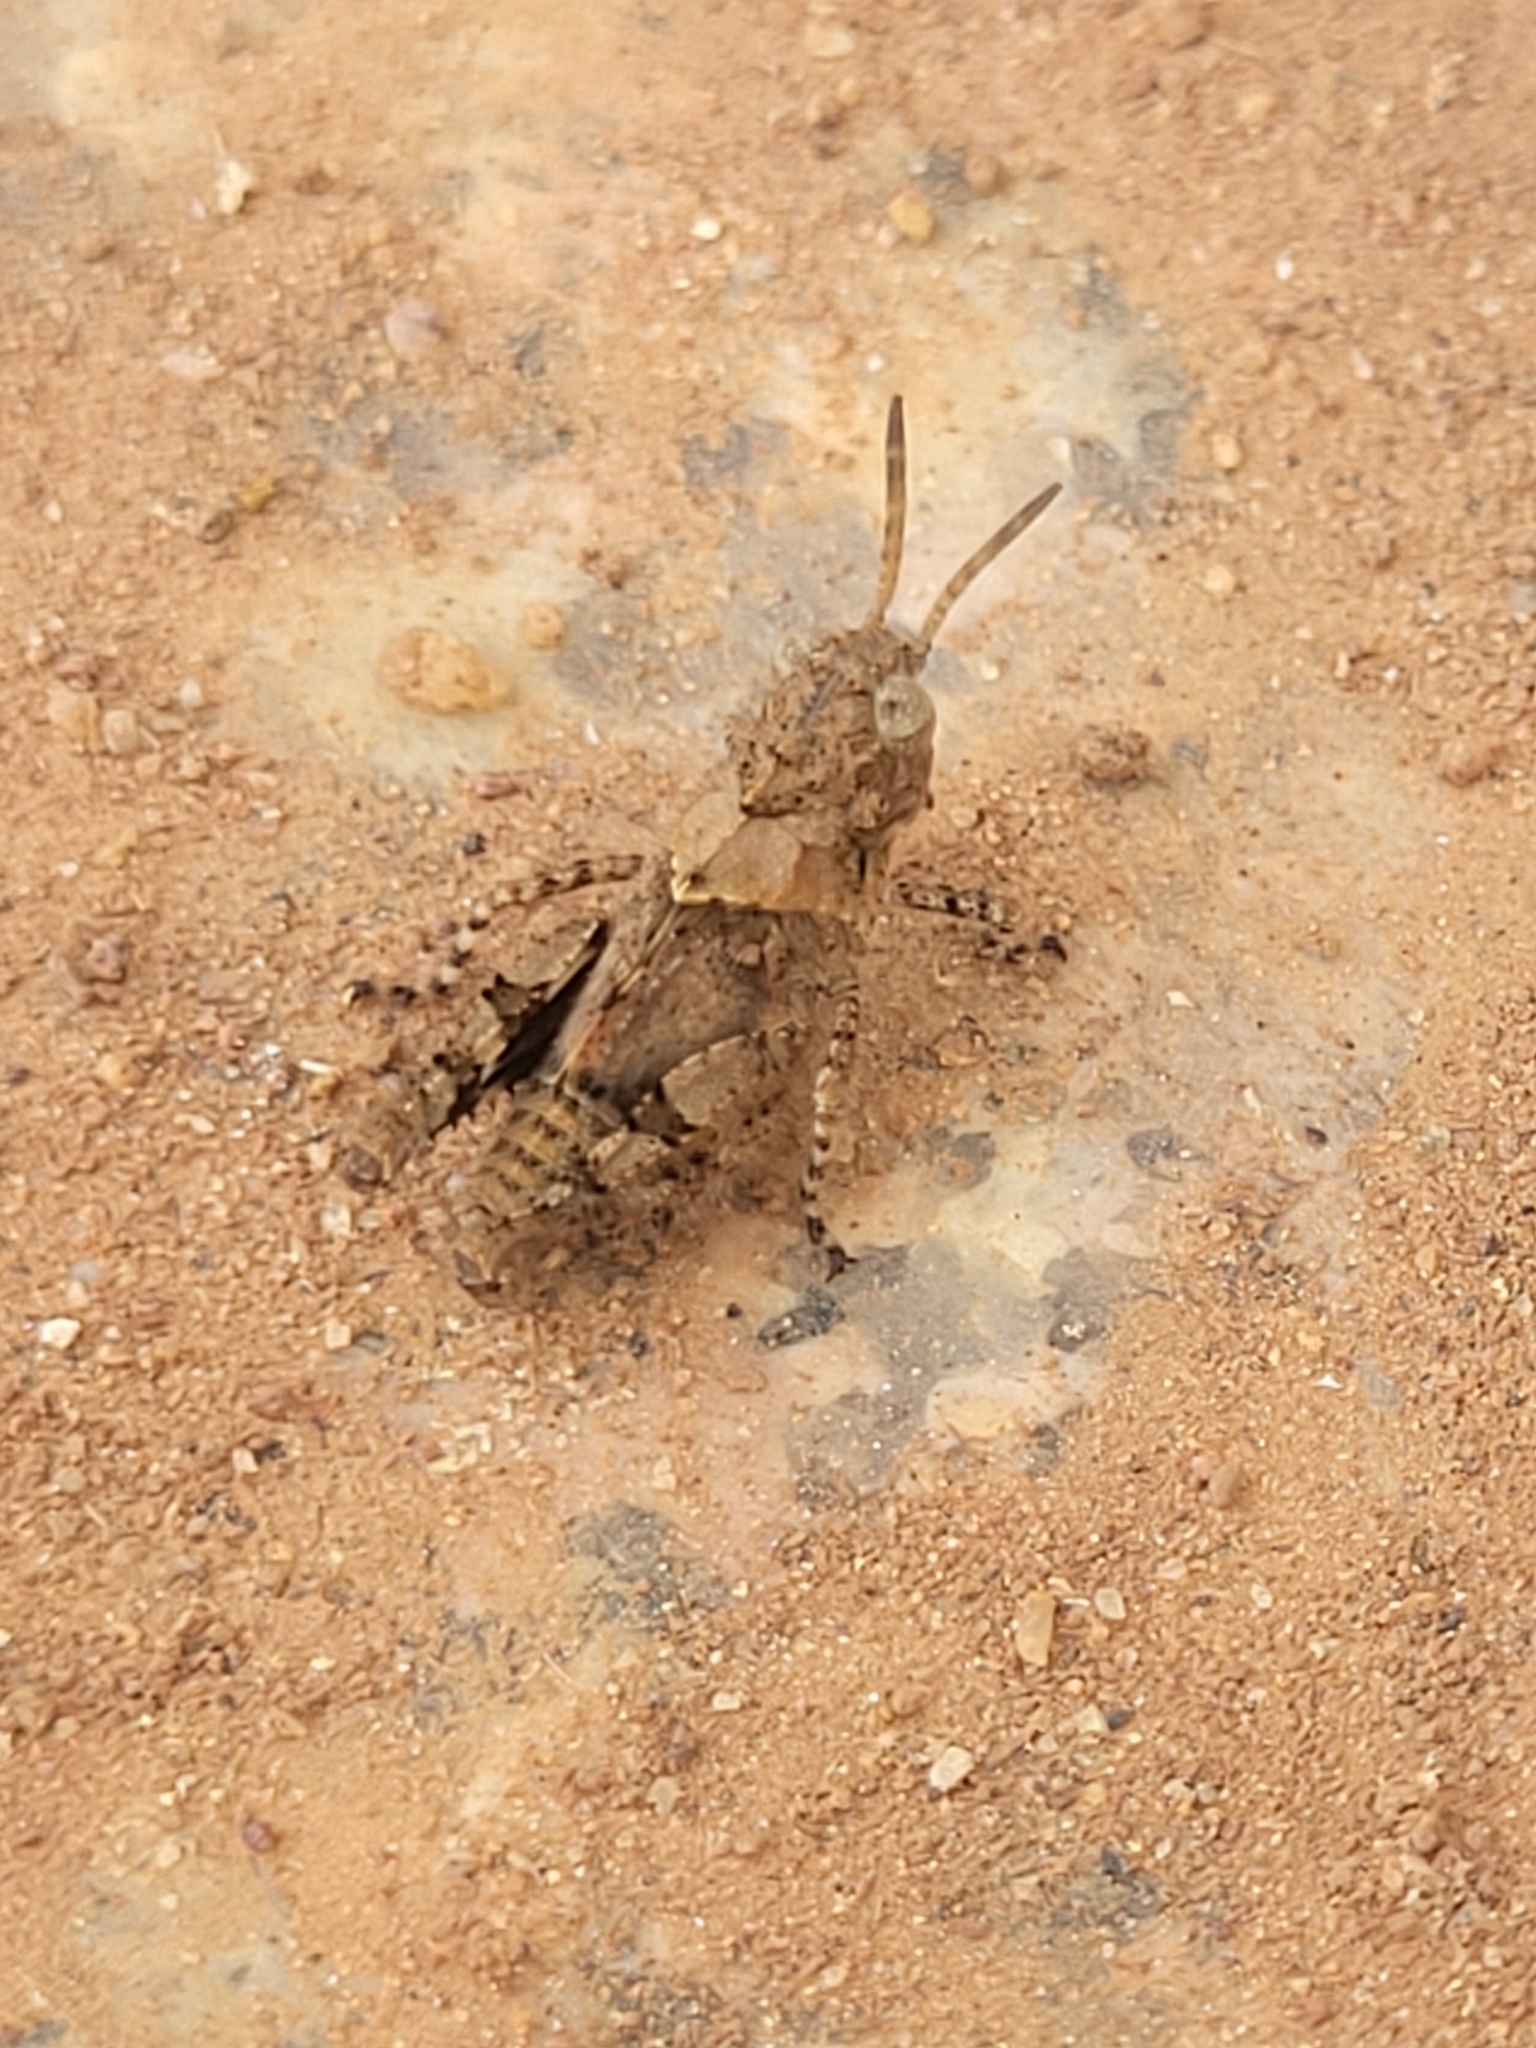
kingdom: Animalia
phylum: Arthropoda
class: Insecta
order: Orthoptera
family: Acrididae
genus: Trilophidia
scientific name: Trilophidia annulata
